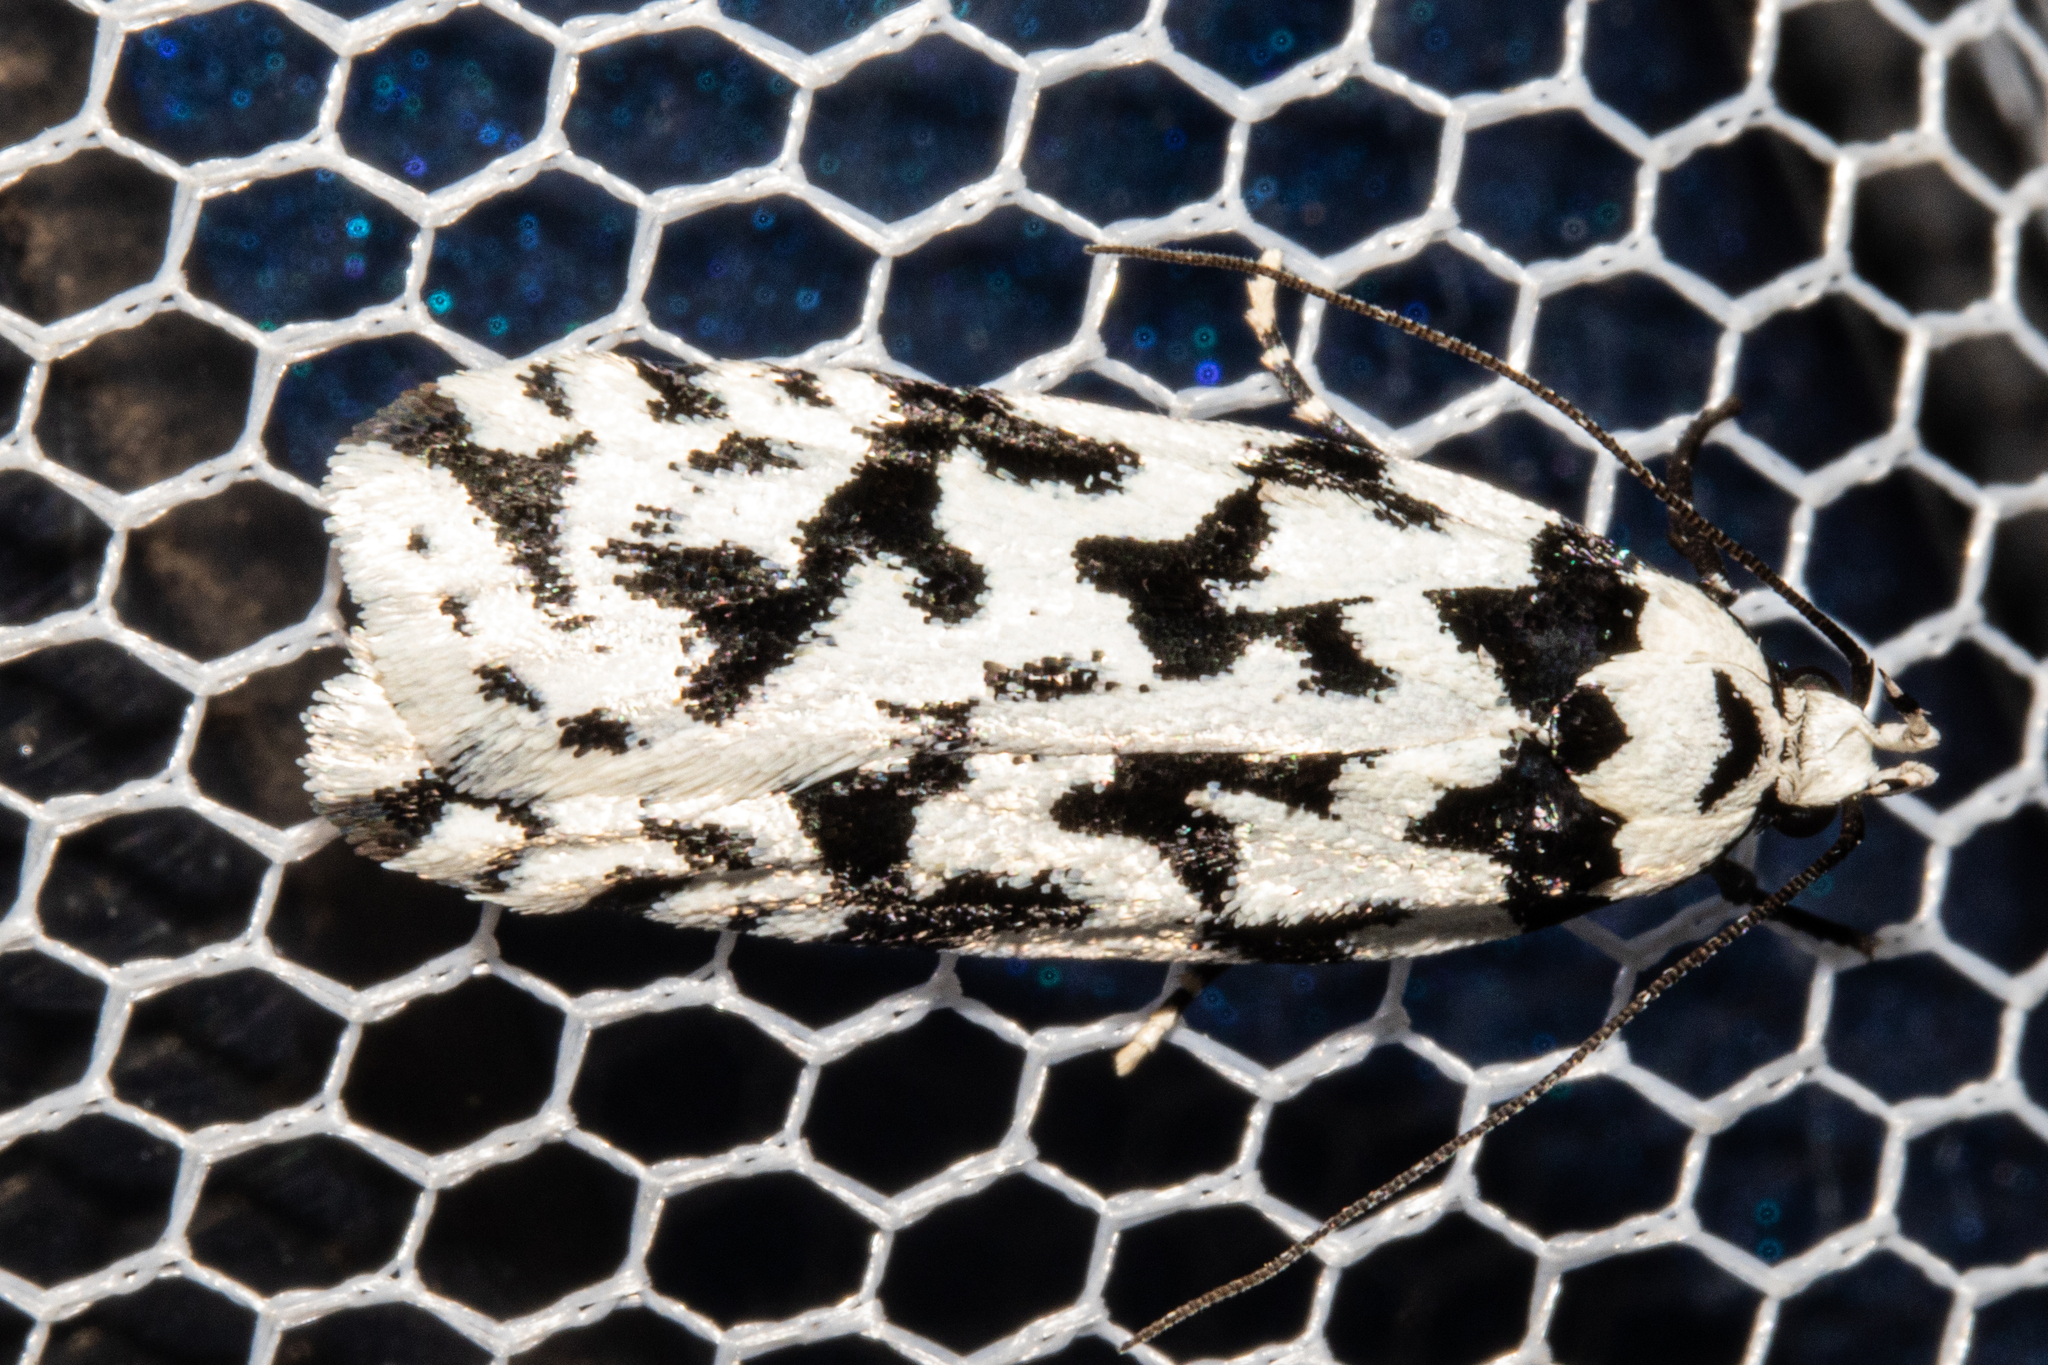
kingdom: Animalia
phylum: Arthropoda
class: Insecta
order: Lepidoptera
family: Oecophoridae
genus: Izatha
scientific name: Izatha acmonias
